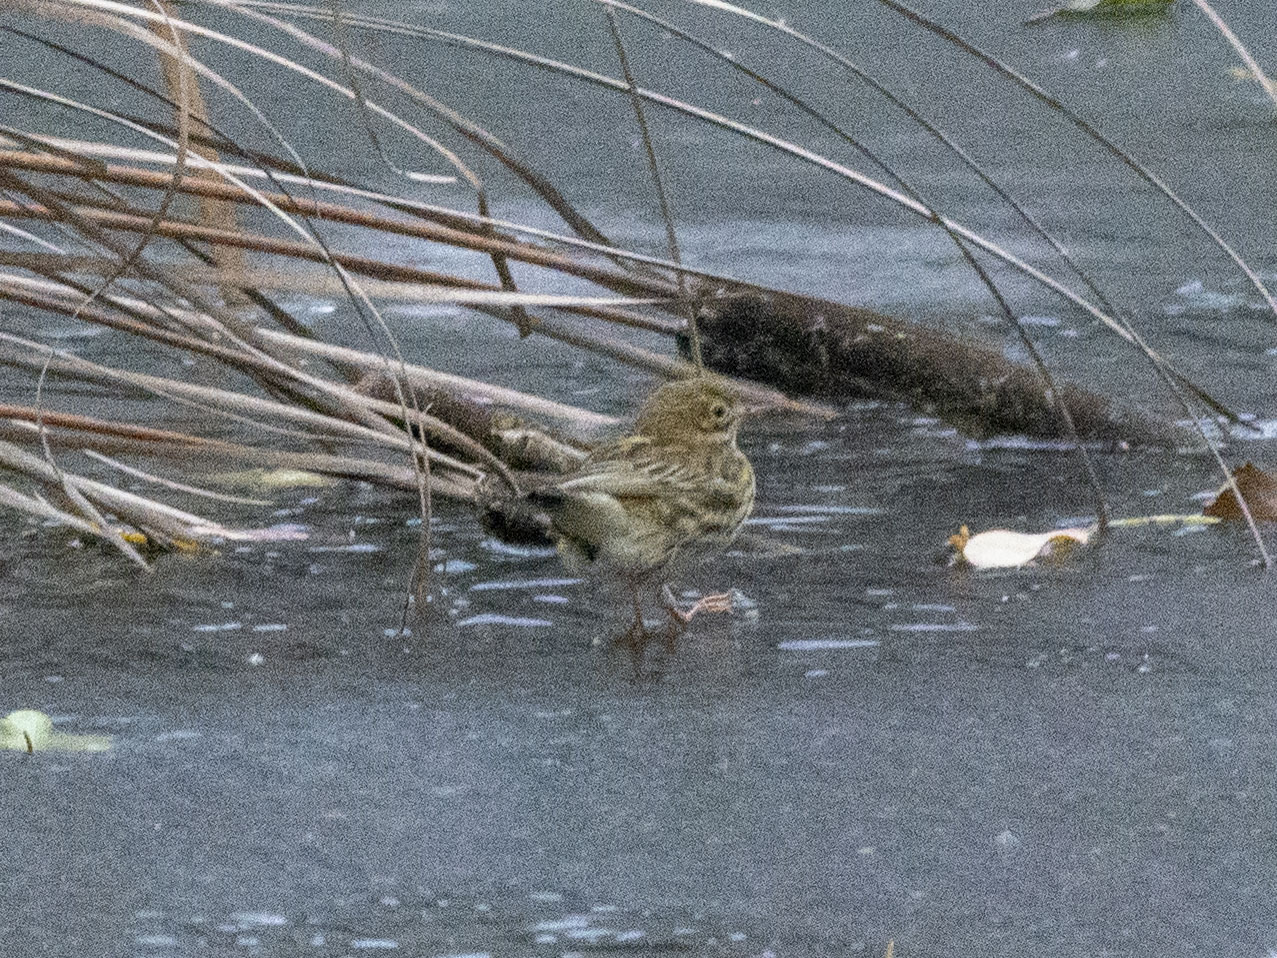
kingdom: Animalia
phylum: Chordata
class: Aves
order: Passeriformes
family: Motacillidae
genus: Anthus
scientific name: Anthus pratensis
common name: Meadow pipit
